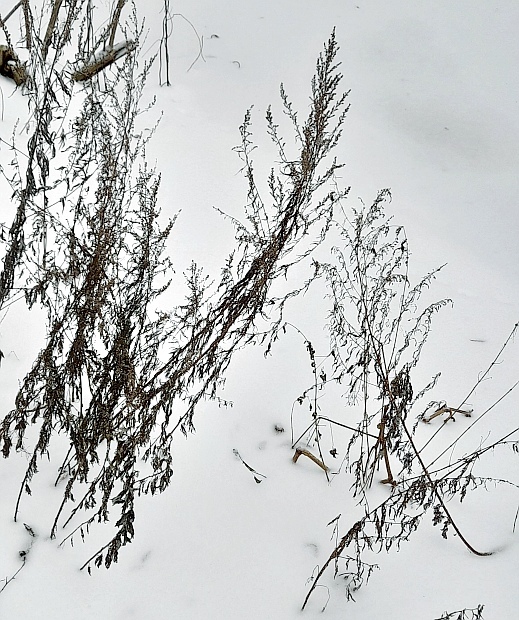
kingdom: Plantae
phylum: Tracheophyta
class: Magnoliopsida
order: Asterales
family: Asteraceae
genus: Artemisia
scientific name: Artemisia vulgaris
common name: Mugwort
